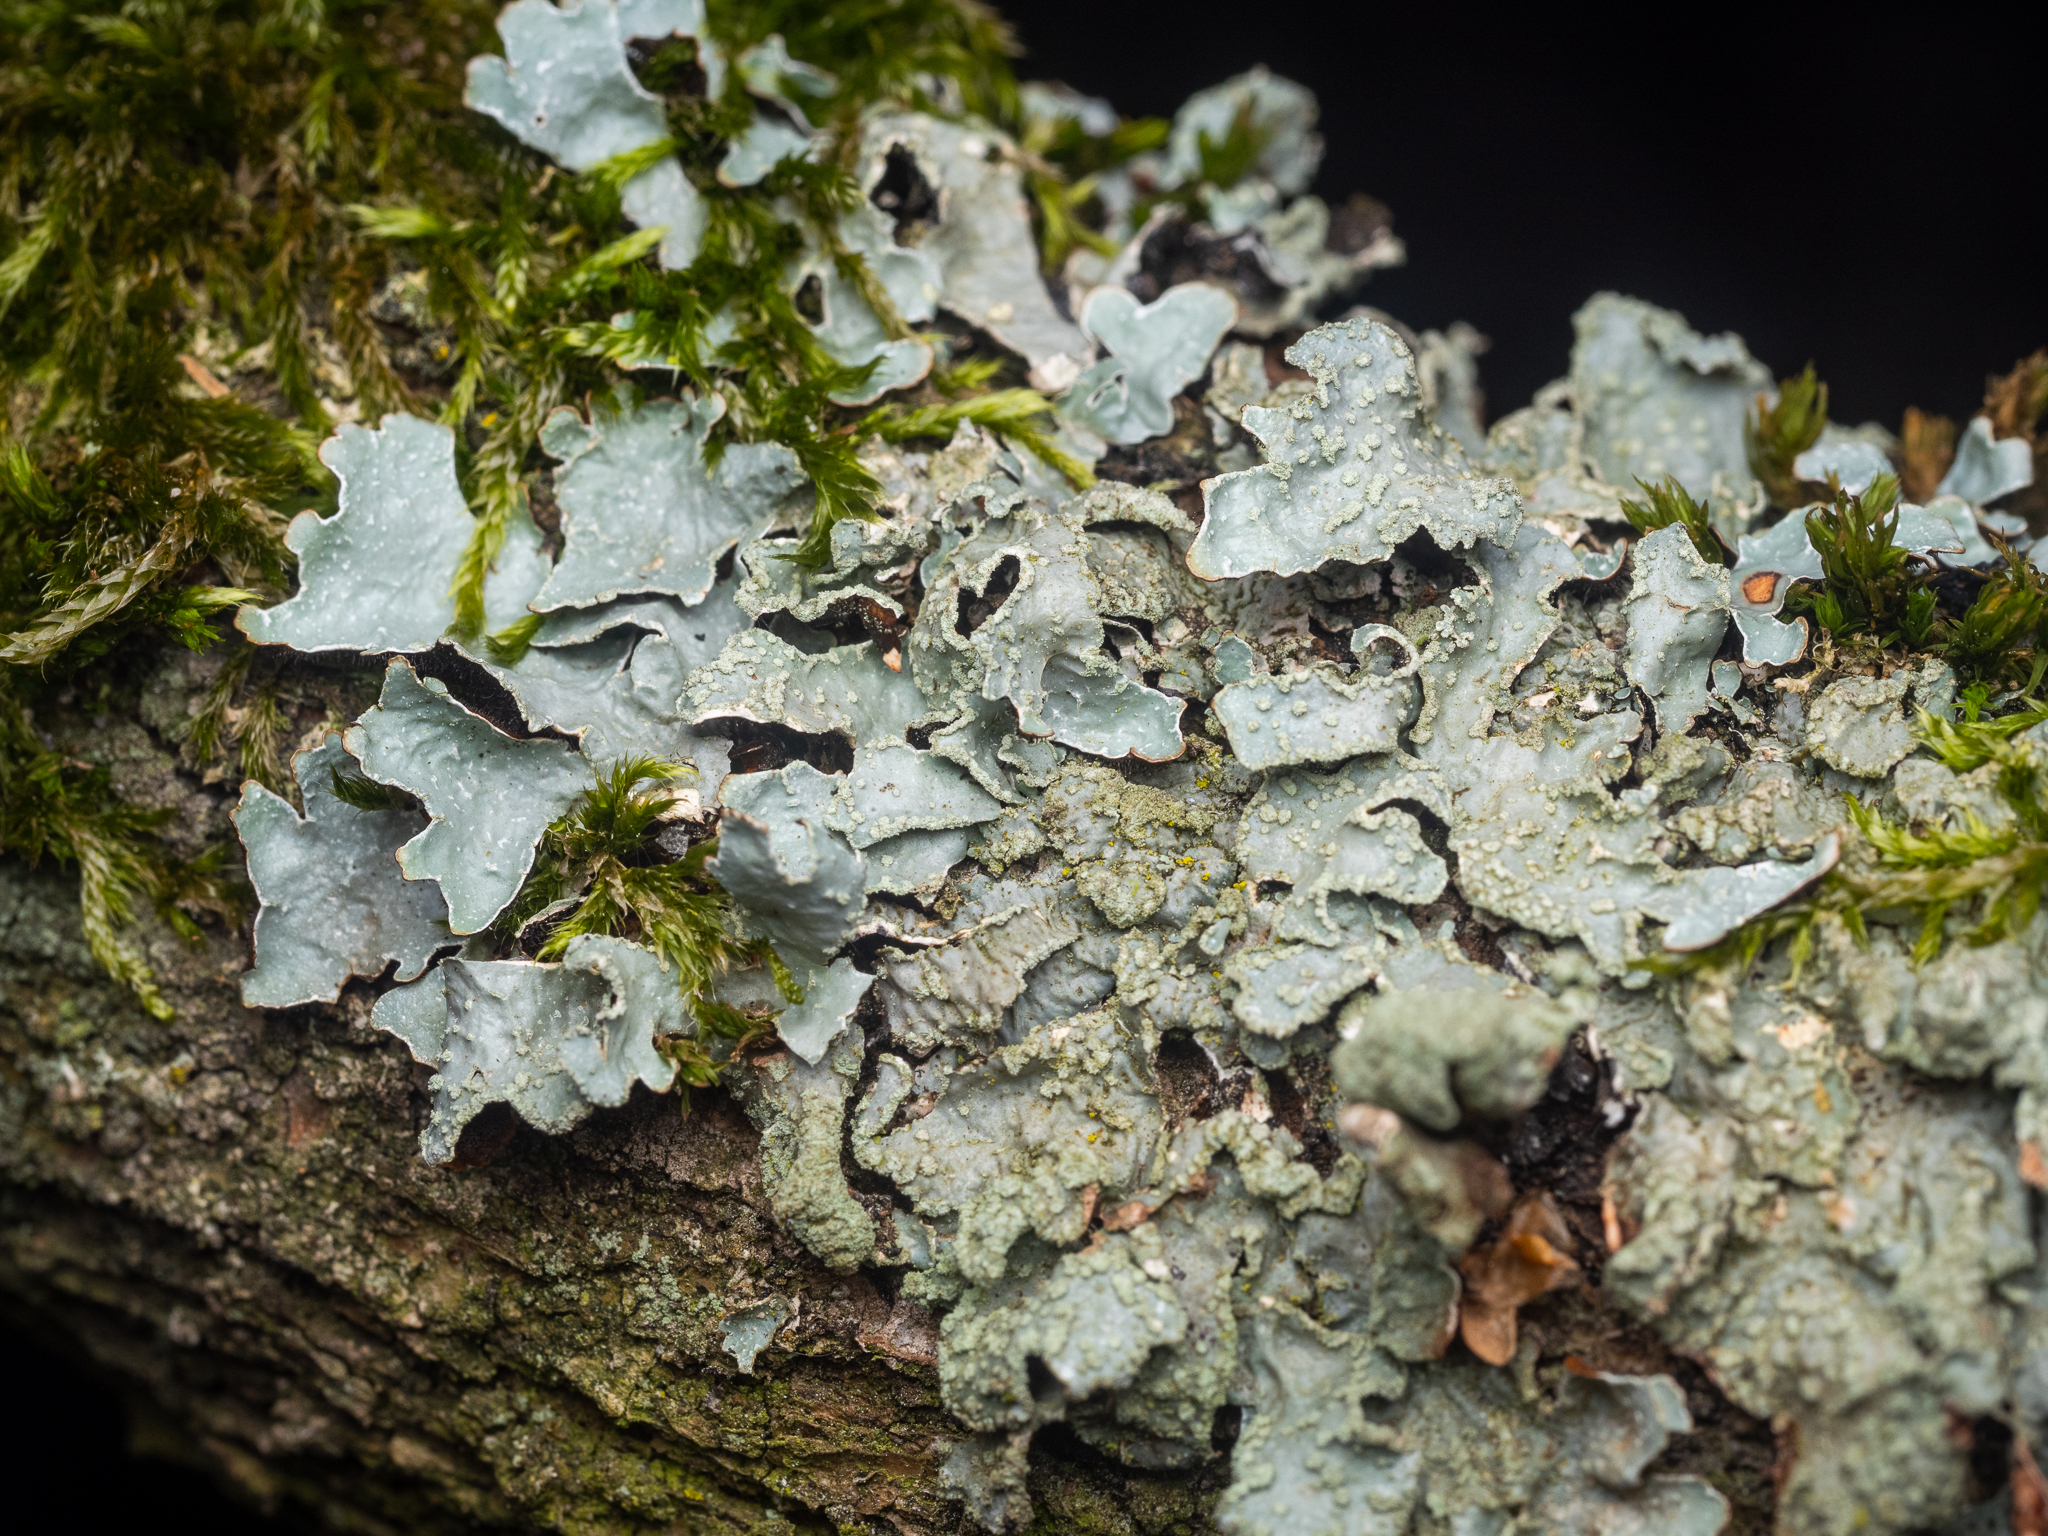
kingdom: Fungi
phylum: Ascomycota
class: Lecanoromycetes
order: Lecanorales
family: Parmeliaceae
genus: Parmelia
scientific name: Parmelia sulcata
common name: Netted shield lichen
